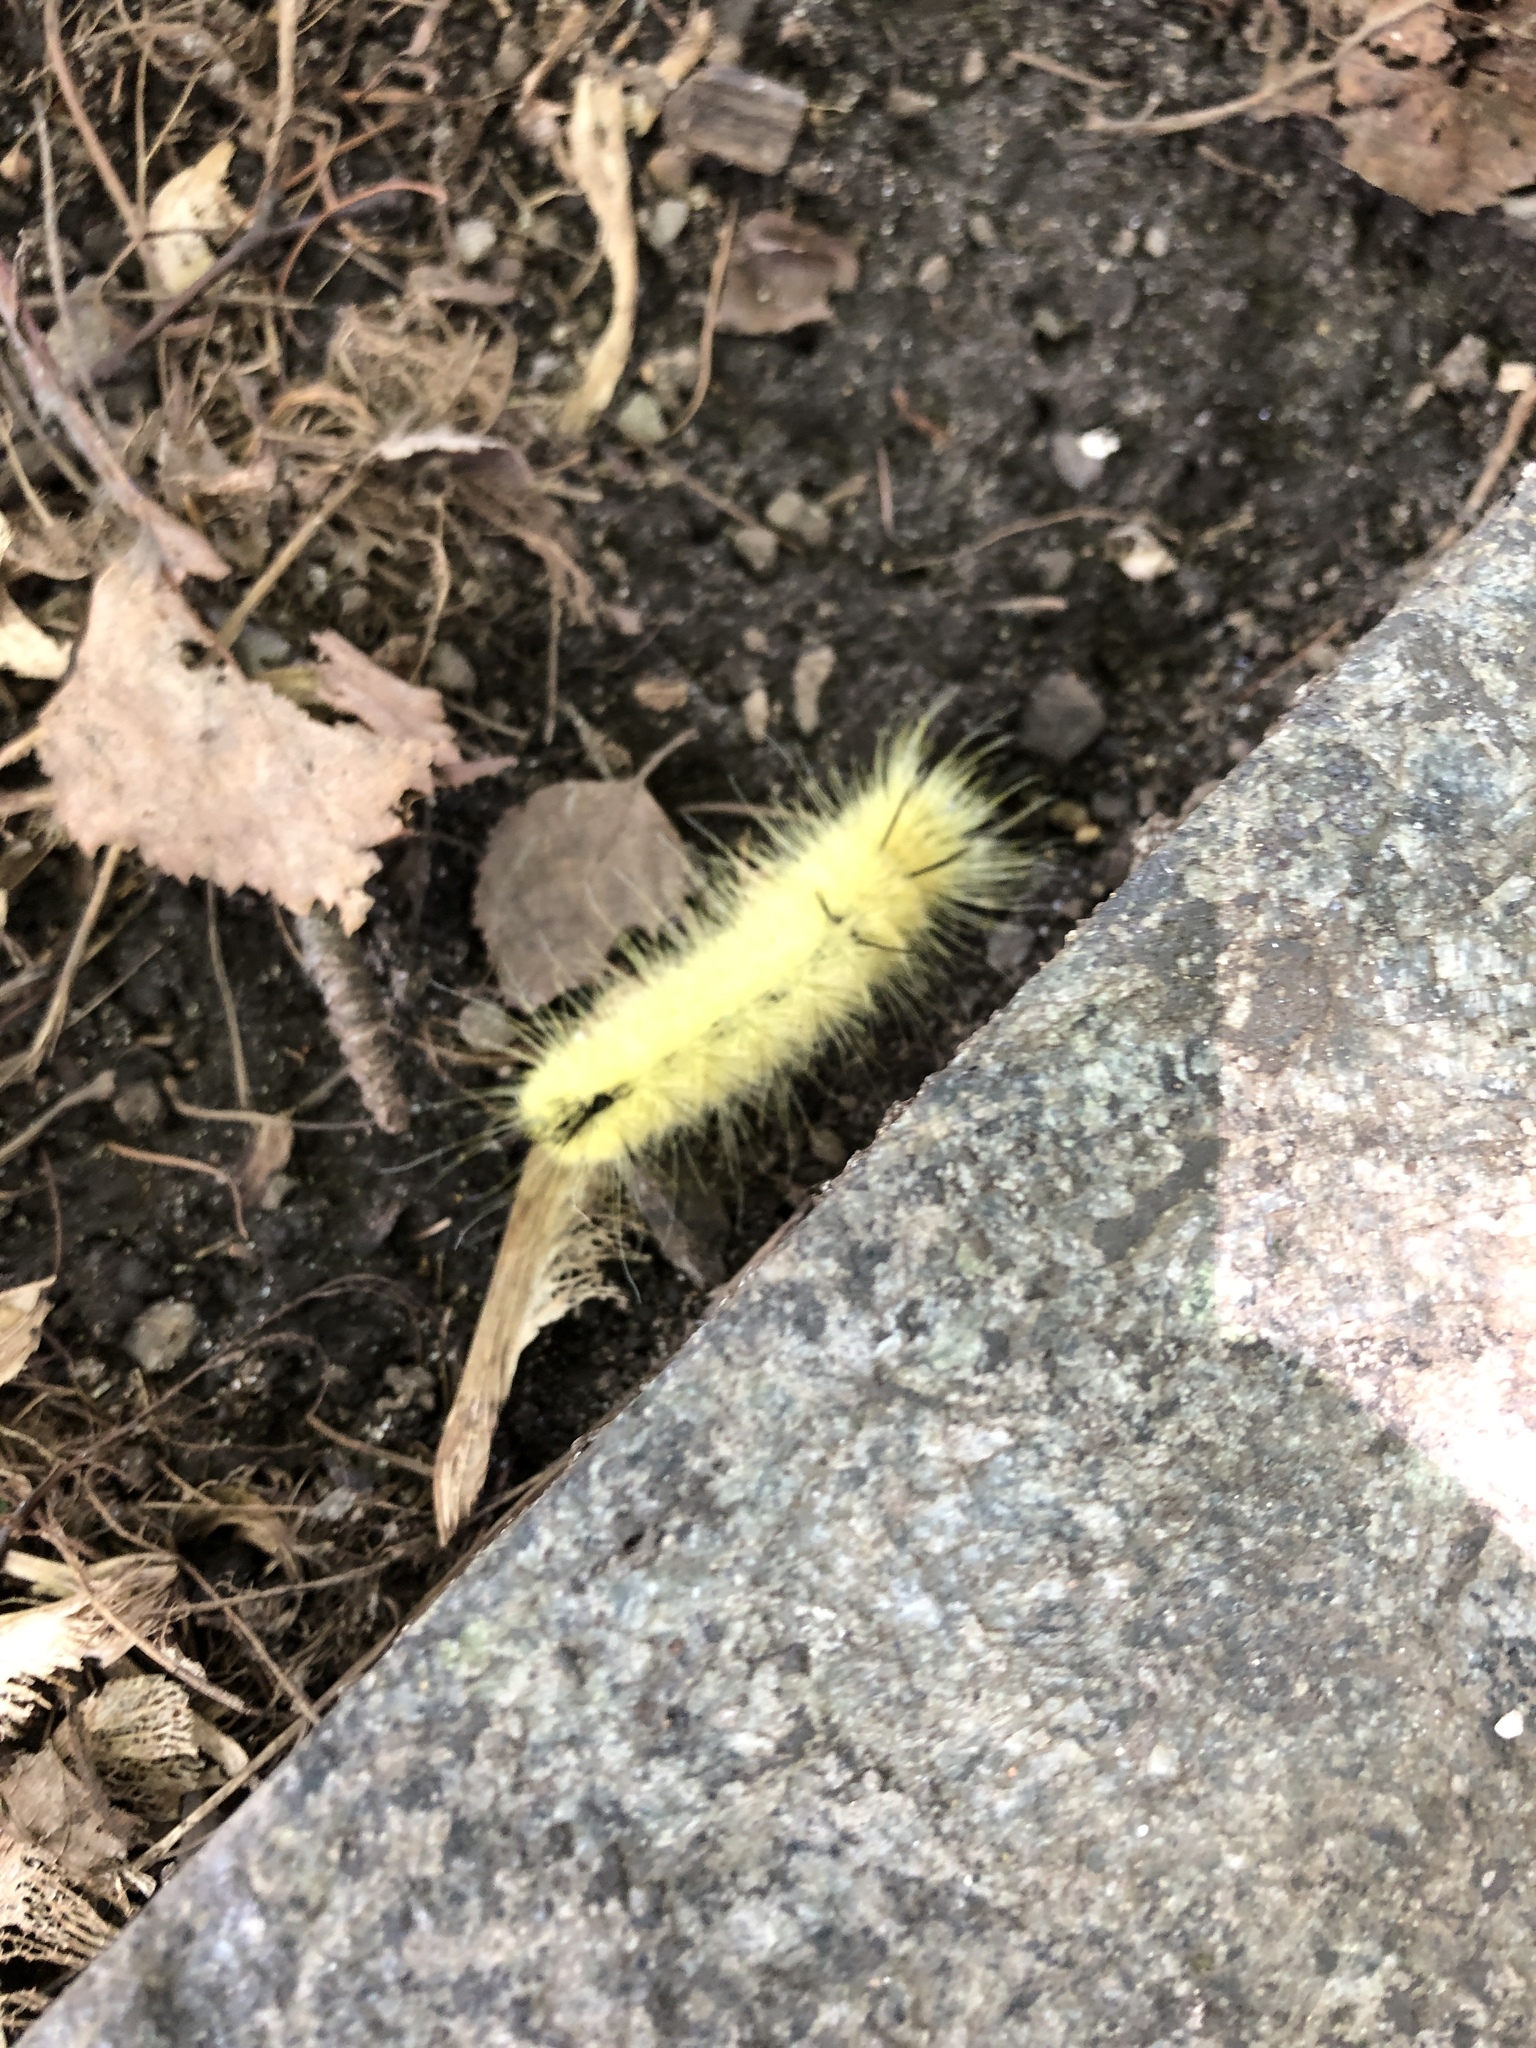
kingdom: Animalia
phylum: Arthropoda
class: Insecta
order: Lepidoptera
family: Noctuidae
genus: Acronicta
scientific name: Acronicta americana
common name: American dagger
